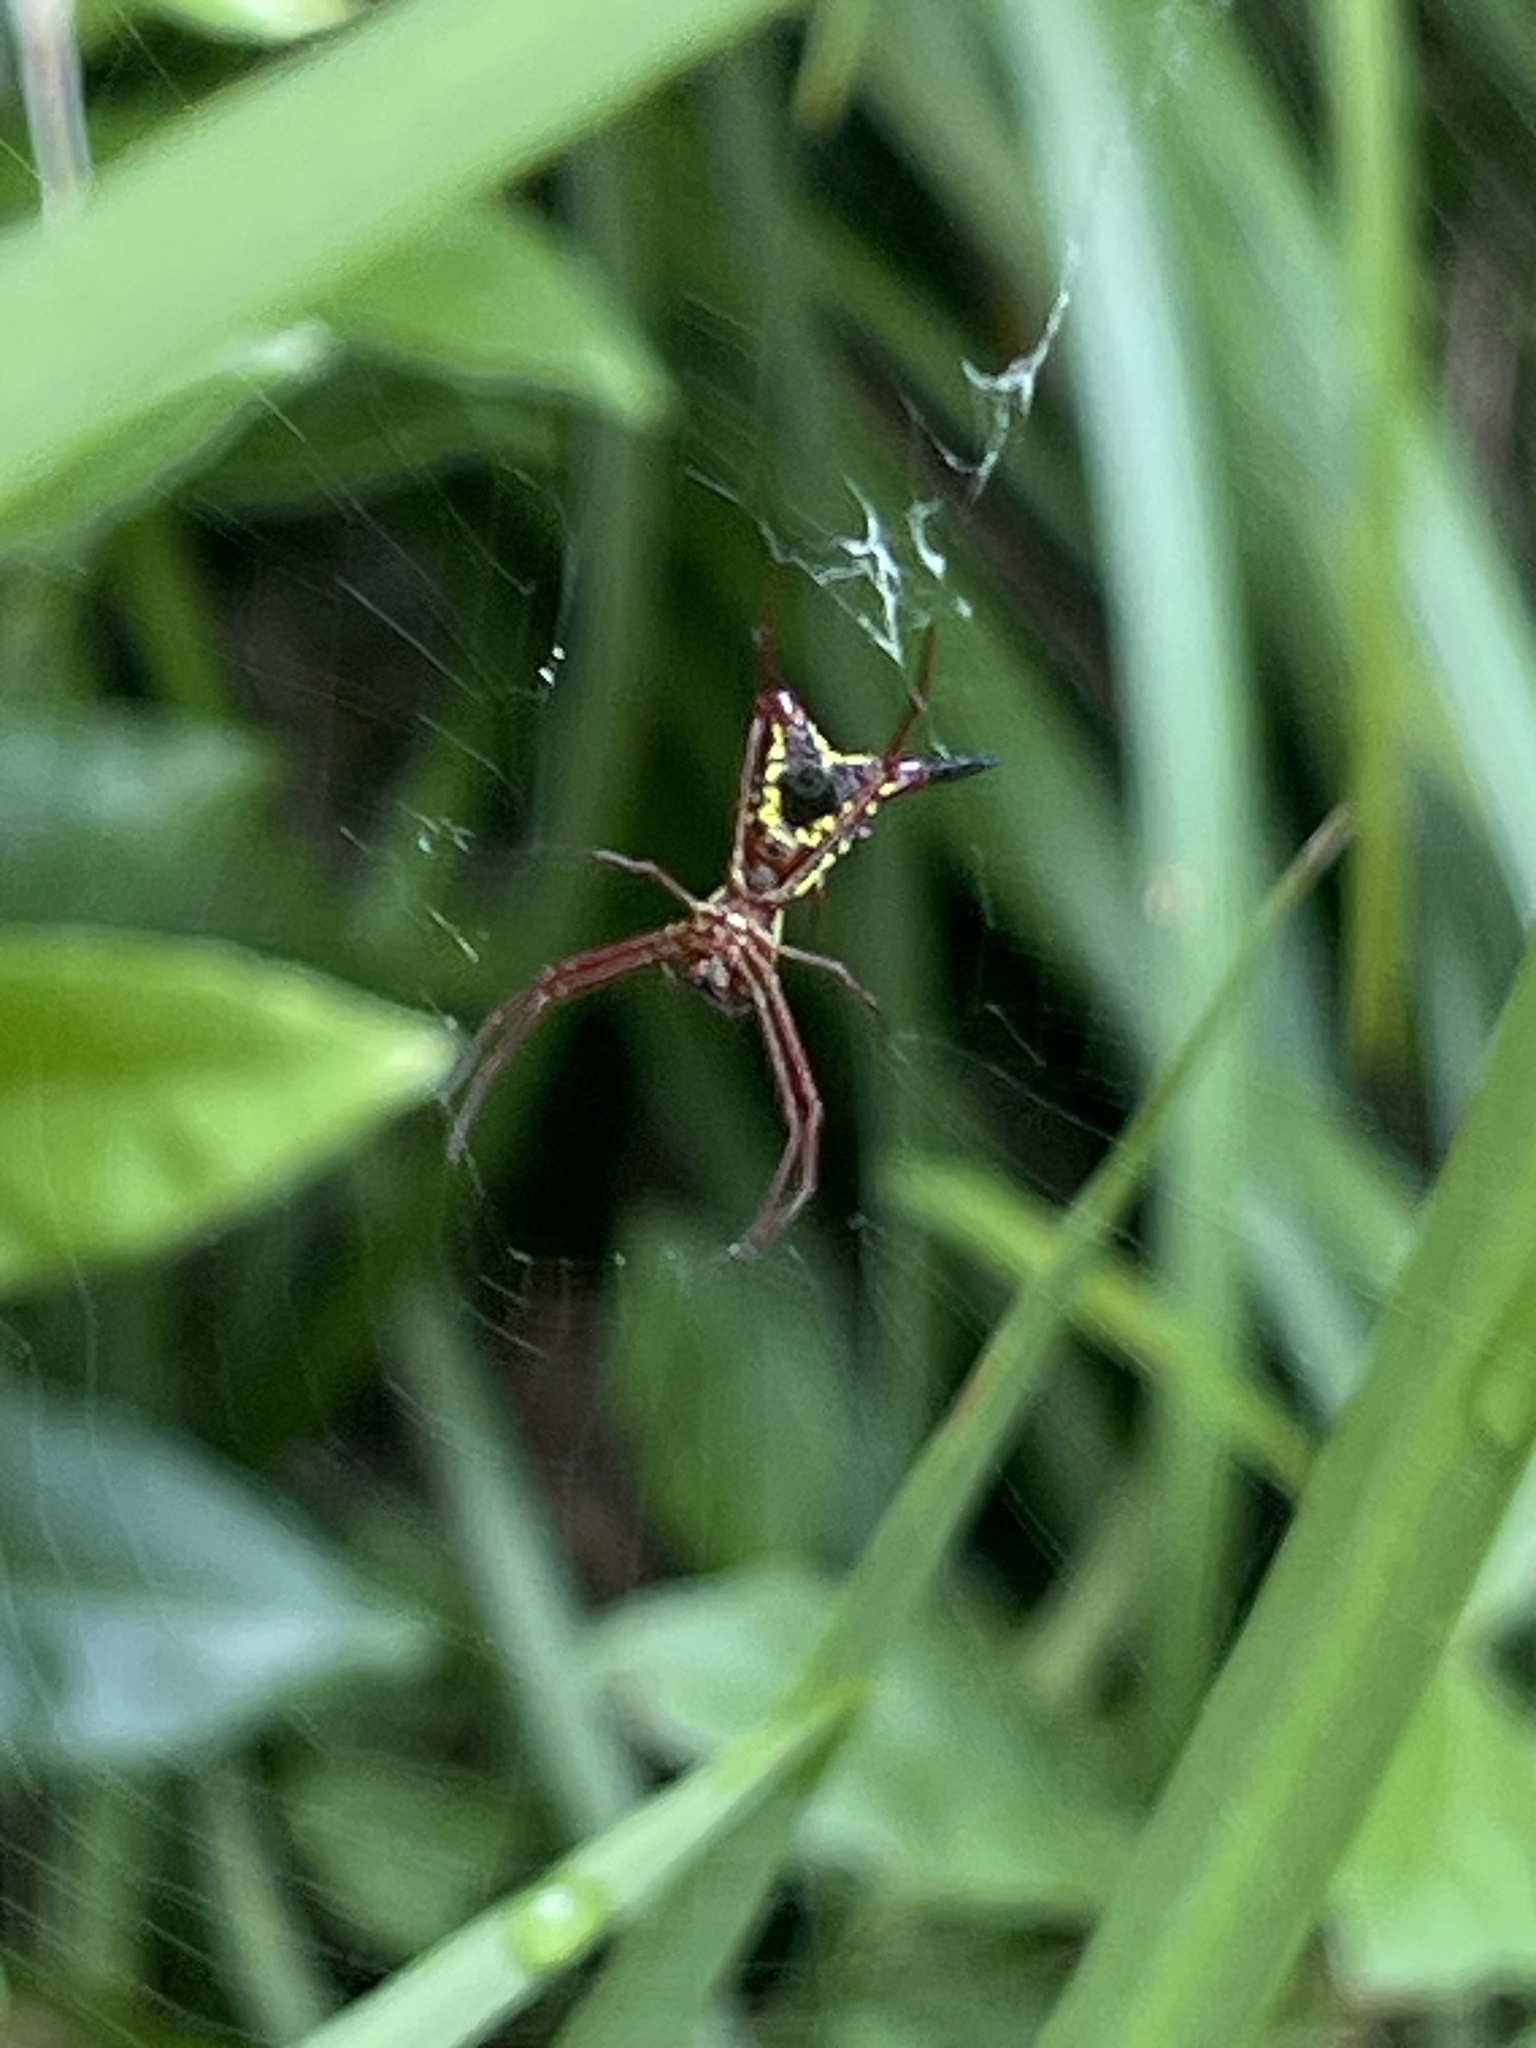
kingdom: Animalia
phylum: Arthropoda
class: Arachnida
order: Araneae
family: Araneidae
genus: Micrathena
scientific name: Micrathena sagittata
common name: Orb weavers
